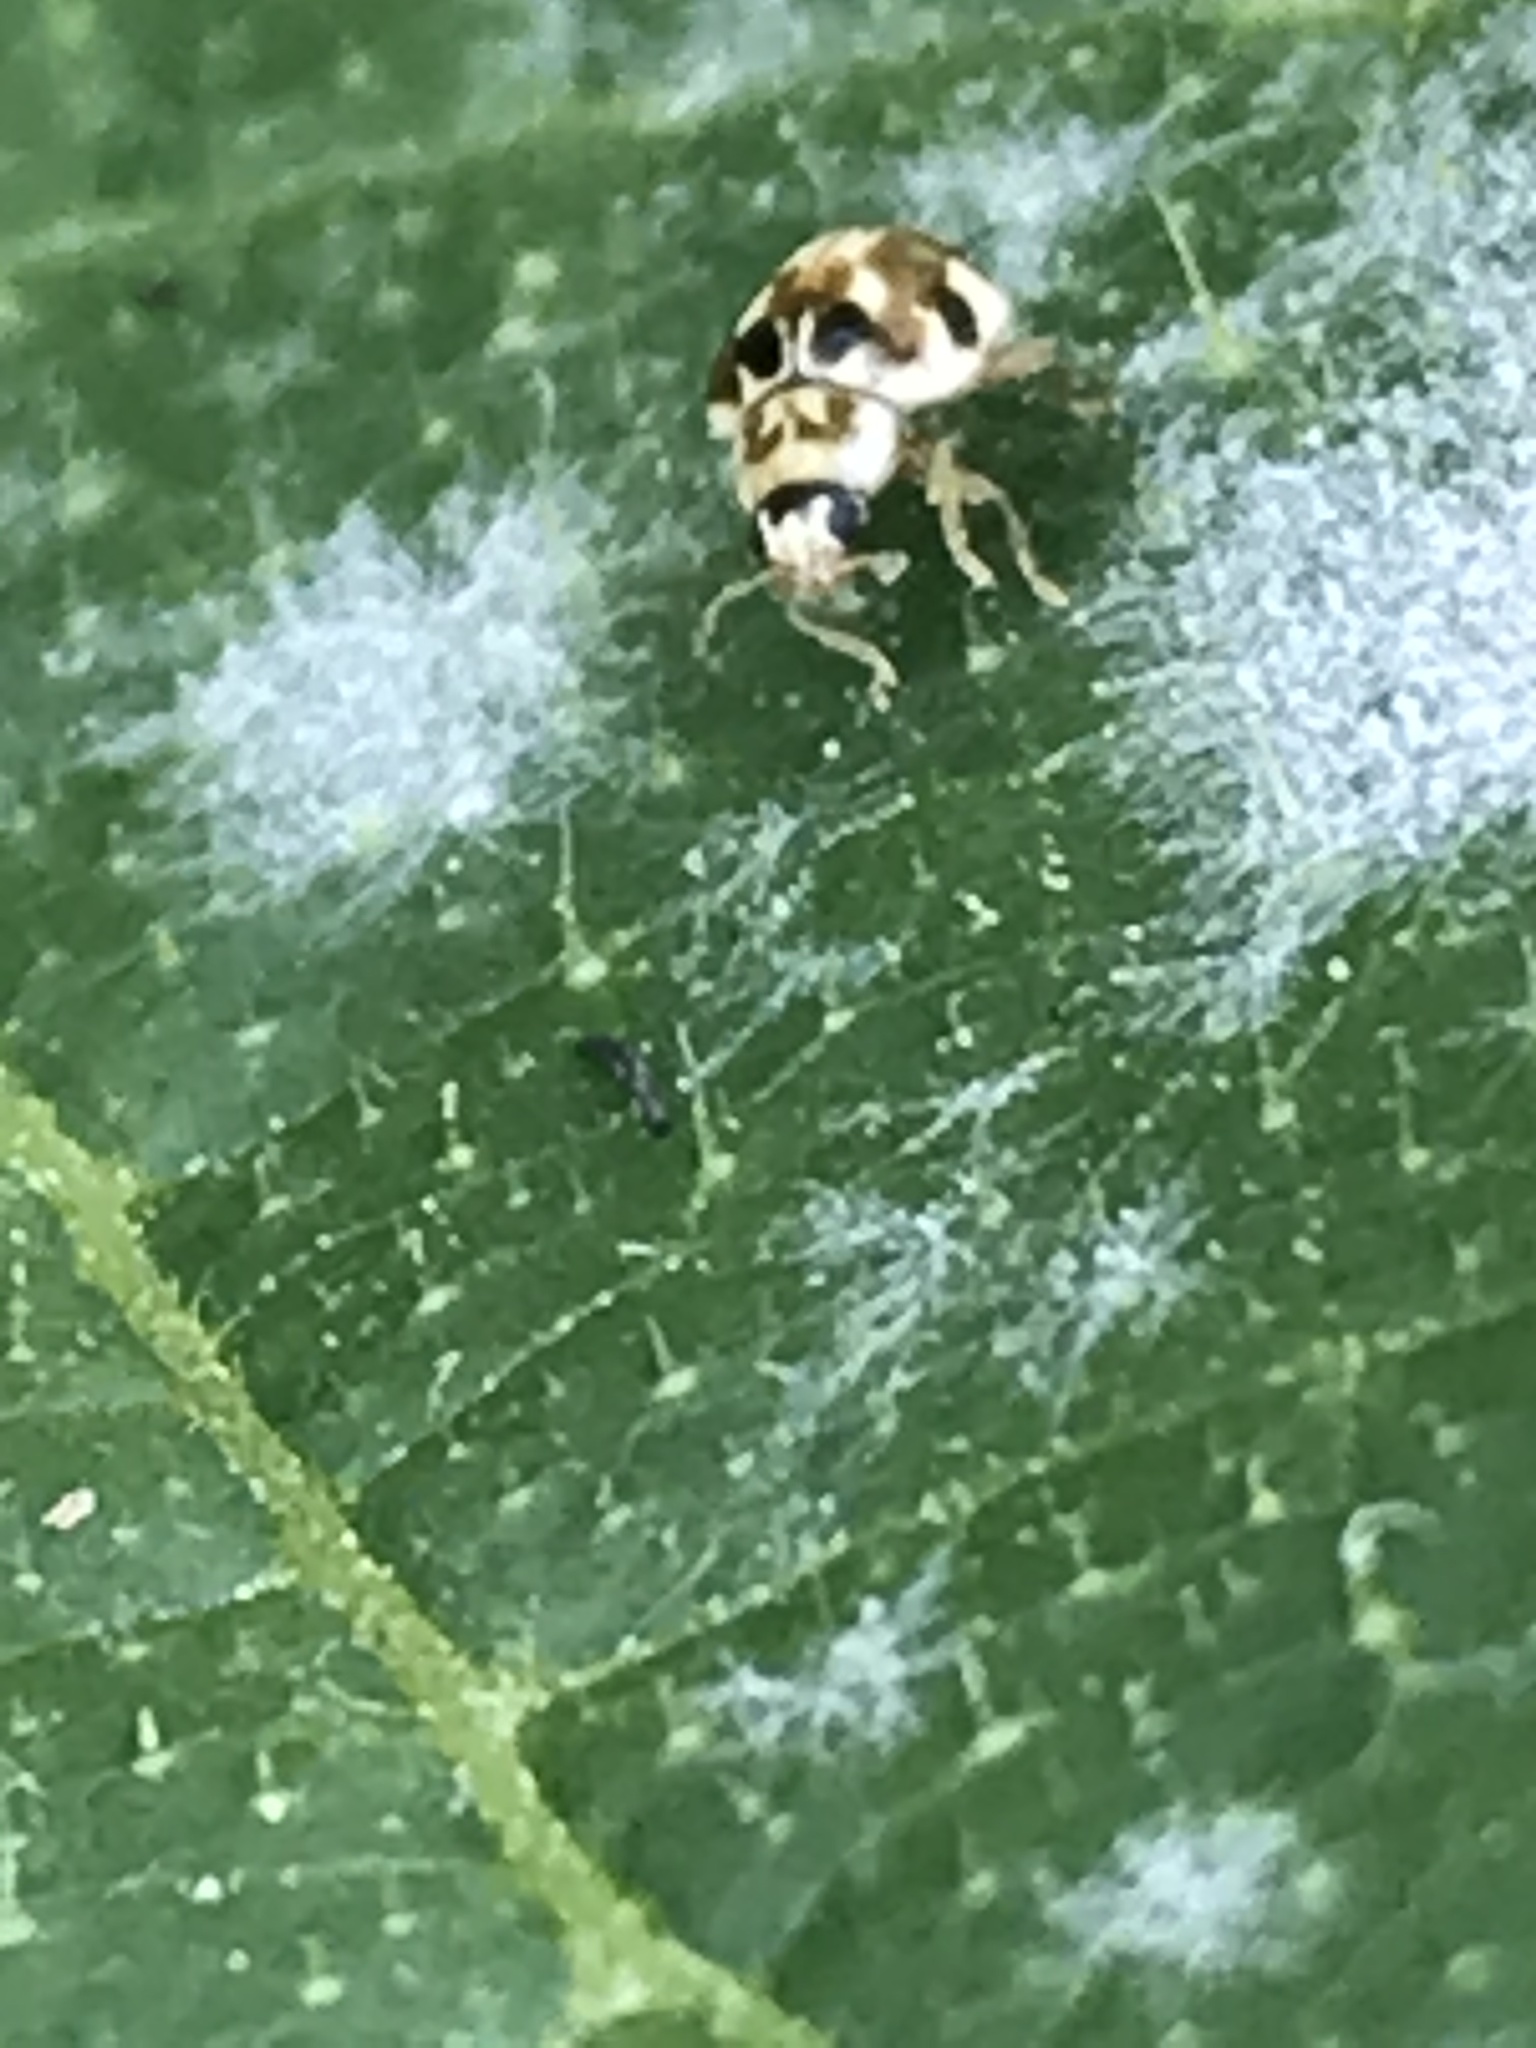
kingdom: Animalia
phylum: Arthropoda
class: Insecta
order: Coleoptera
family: Coccinellidae
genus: Psyllobora
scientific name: Psyllobora vigintimaculata
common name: Ladybird beetle
